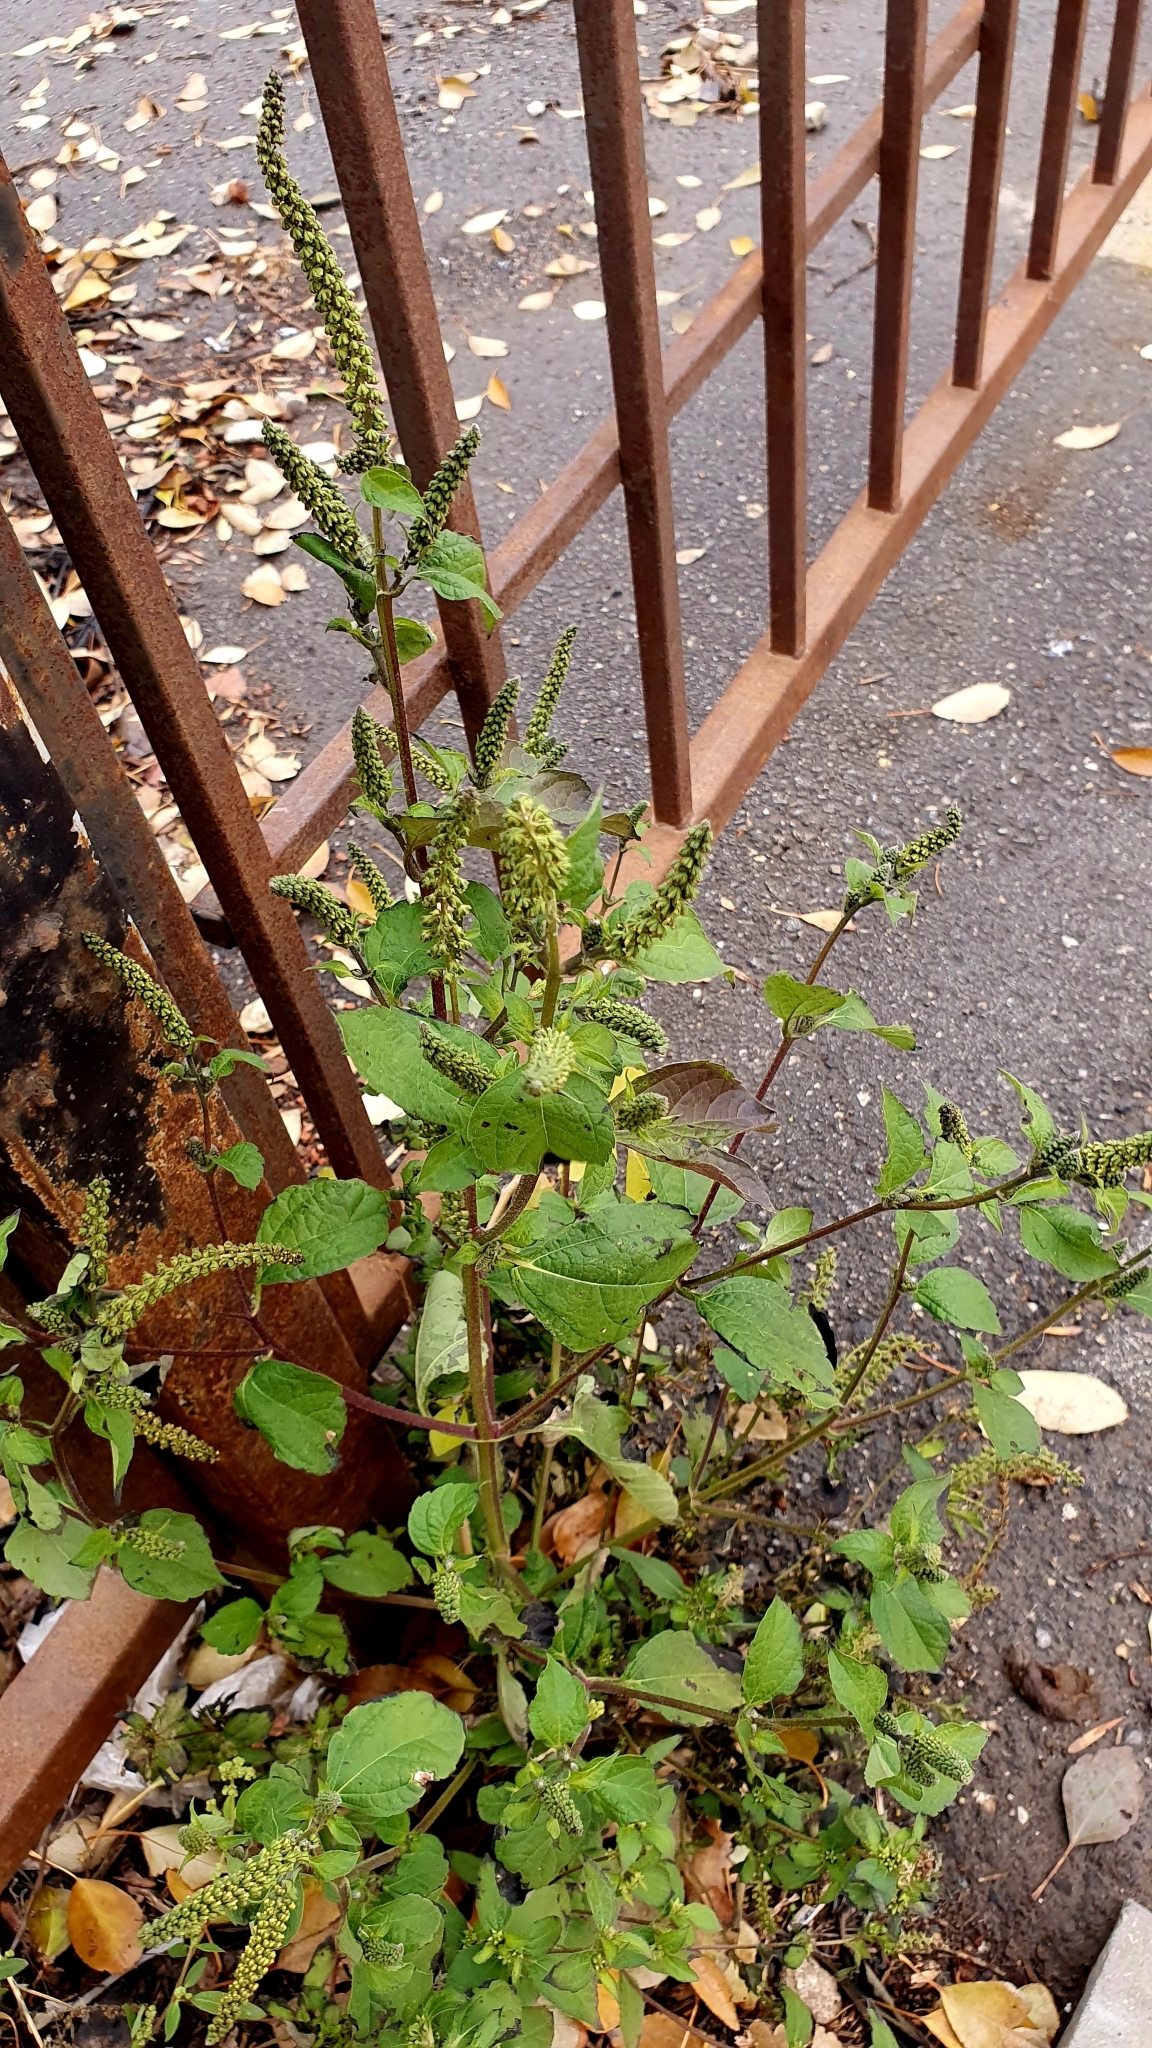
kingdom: Plantae
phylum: Tracheophyta
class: Magnoliopsida
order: Asterales
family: Asteraceae
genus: Ambrosia
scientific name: Ambrosia trifida
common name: Giant ragweed
